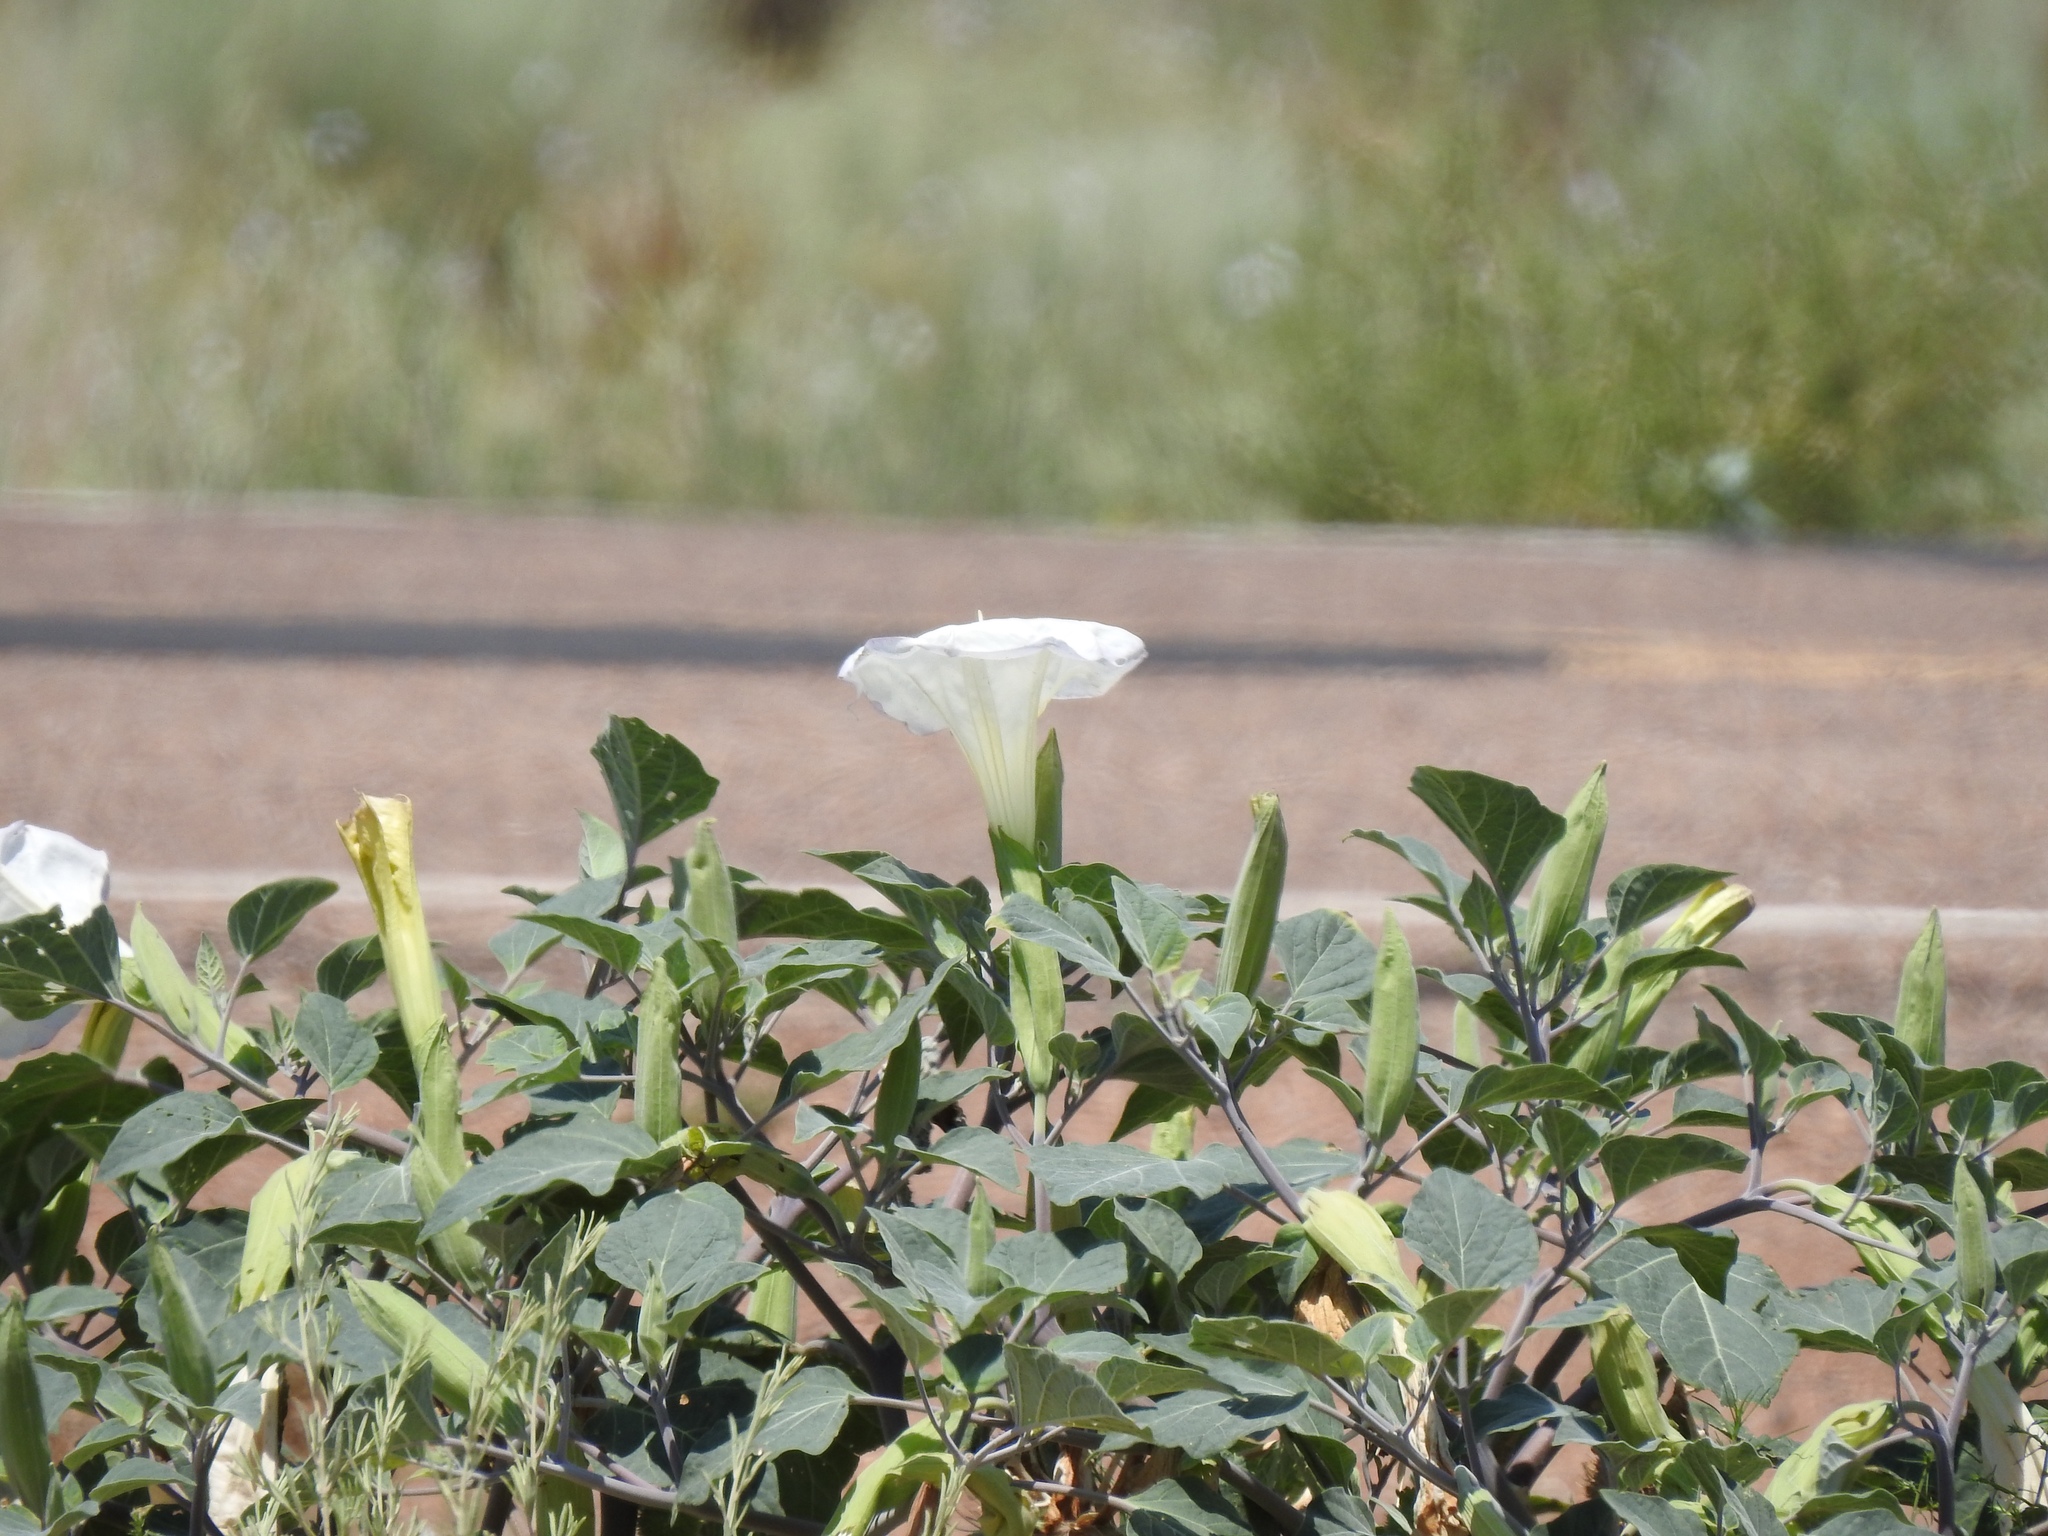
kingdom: Plantae
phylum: Tracheophyta
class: Magnoliopsida
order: Solanales
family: Solanaceae
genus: Datura
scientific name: Datura wrightii
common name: Sacred thorn-apple
